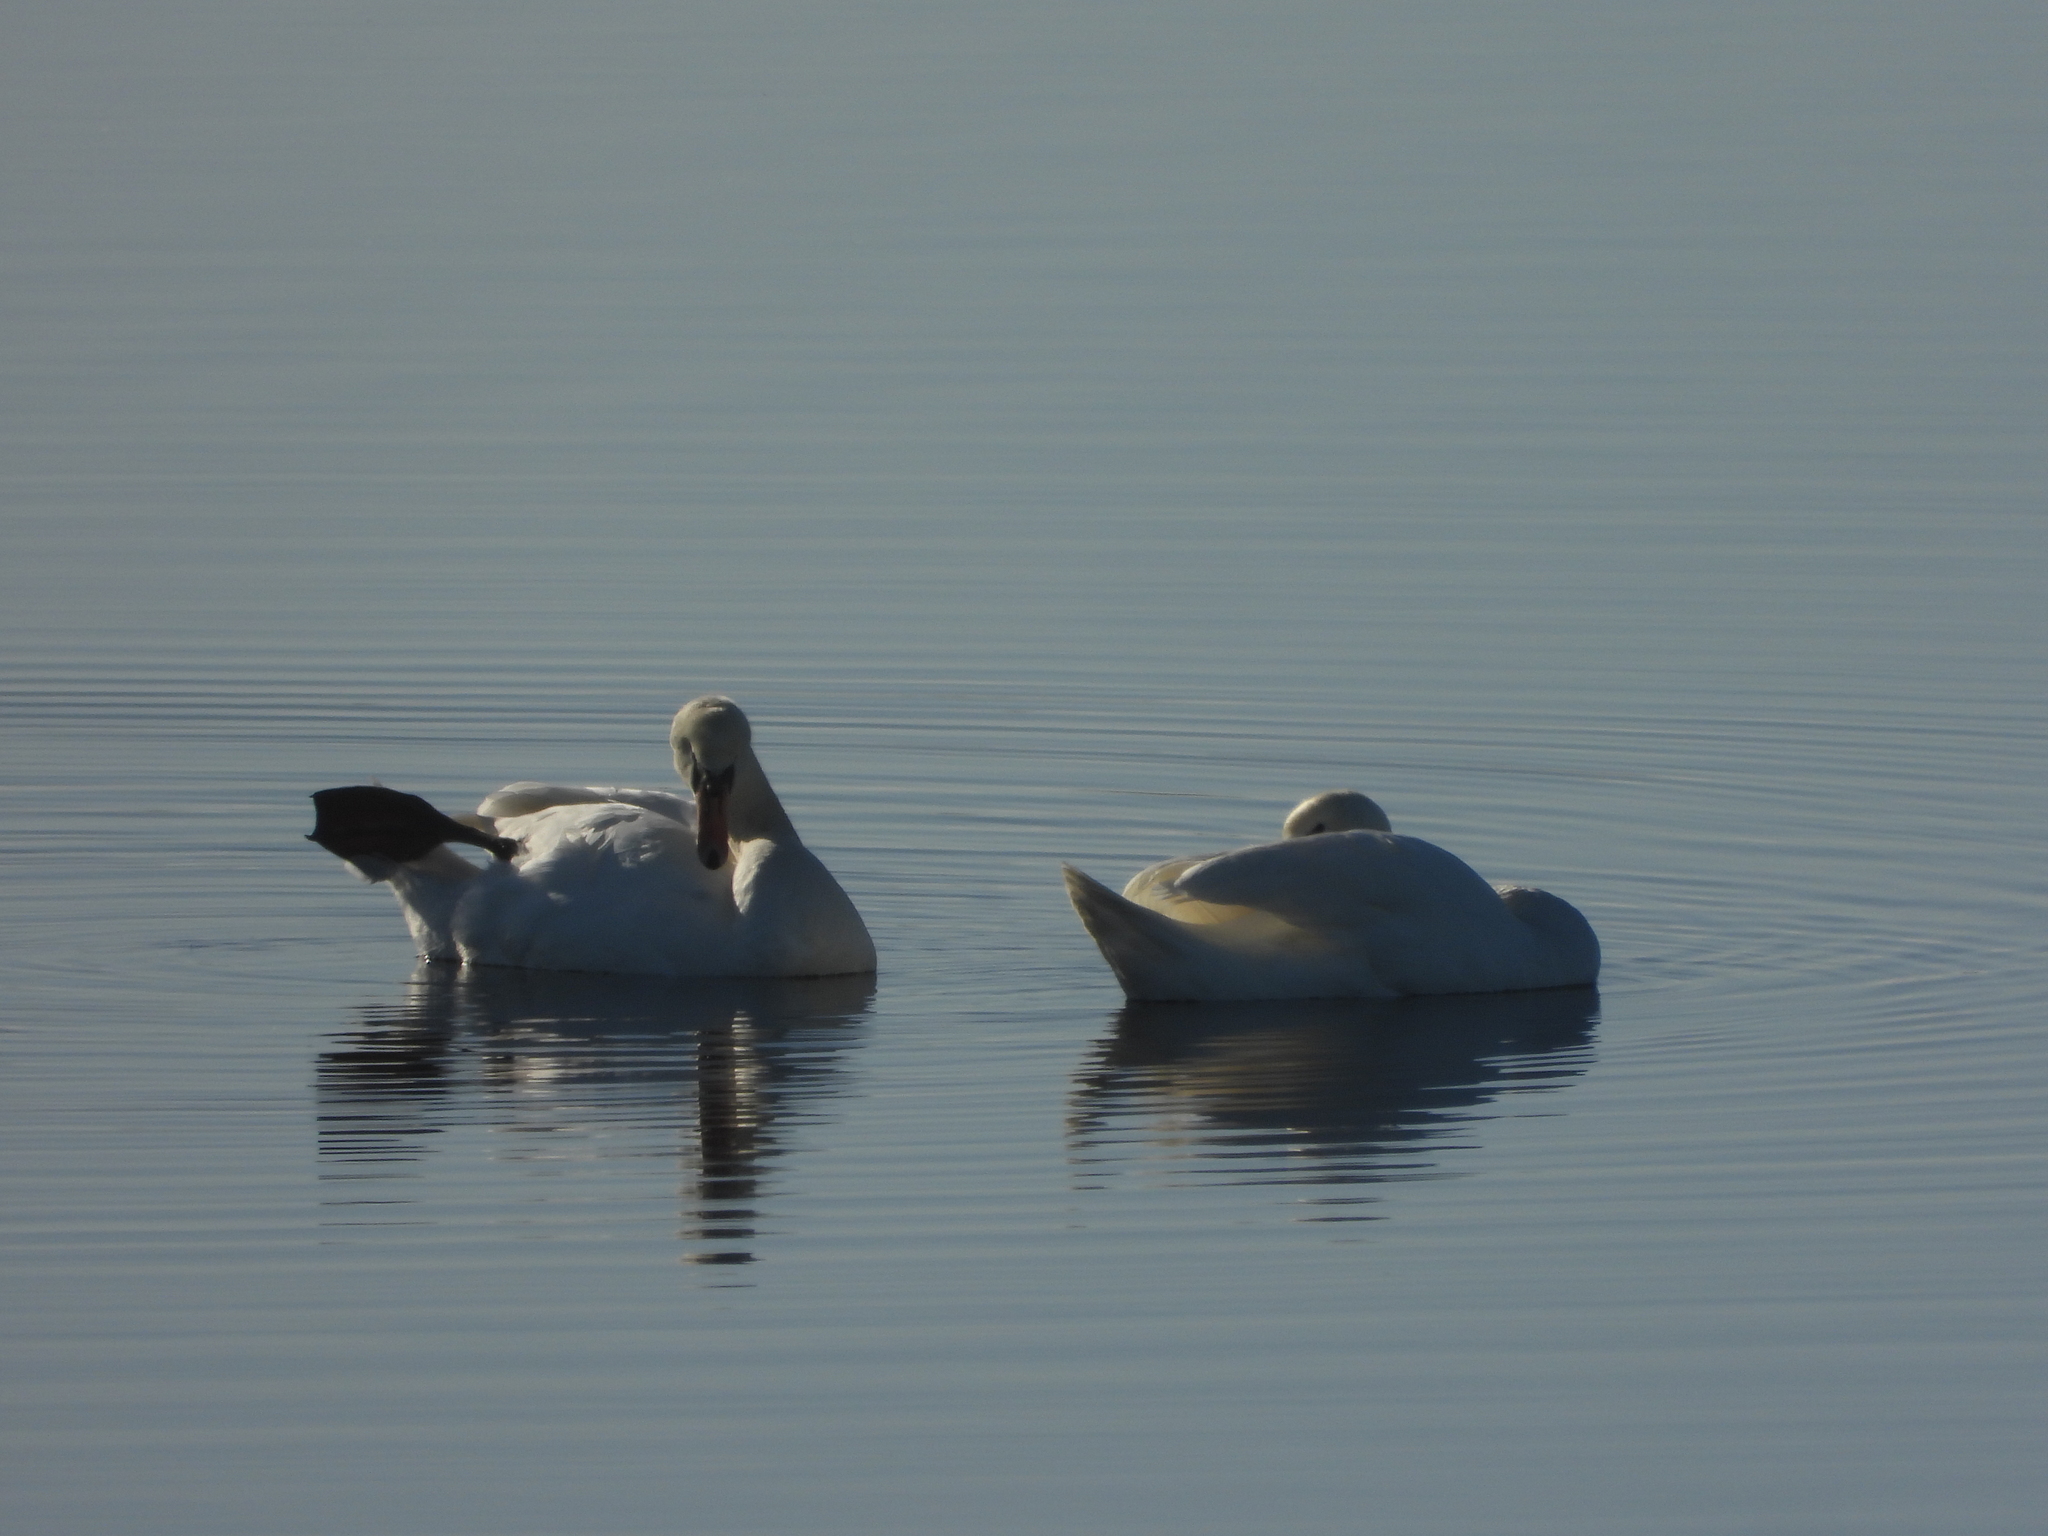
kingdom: Animalia
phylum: Chordata
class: Aves
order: Anseriformes
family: Anatidae
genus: Cygnus
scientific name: Cygnus olor
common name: Mute swan
